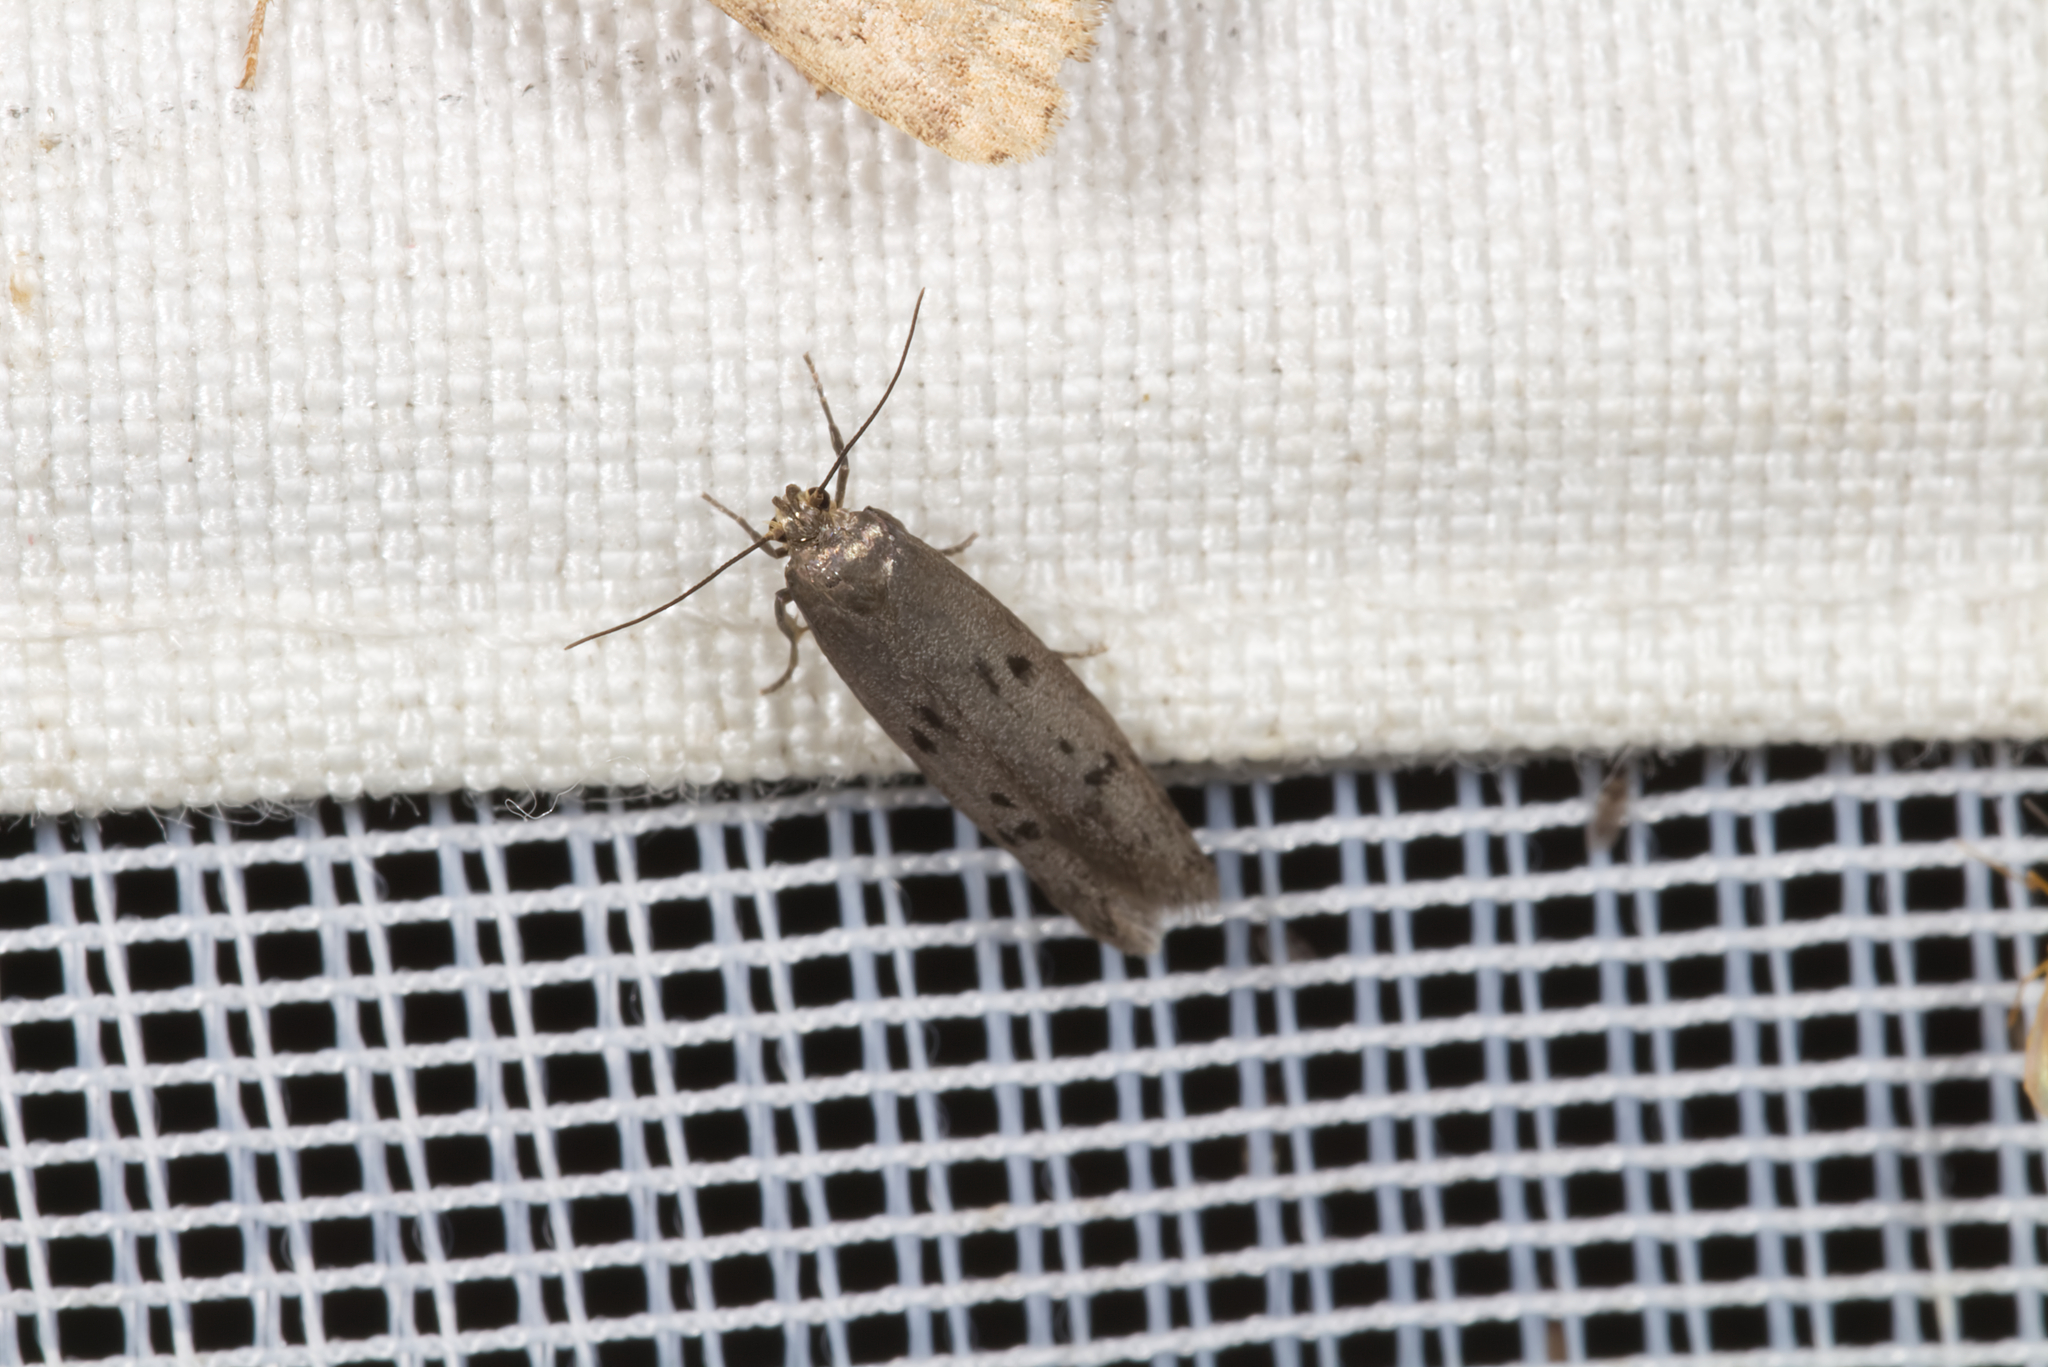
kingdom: Animalia
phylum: Arthropoda
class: Insecta
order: Lepidoptera
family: Blastobasidae
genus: Hypatopa
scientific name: Hypatopa binotella
